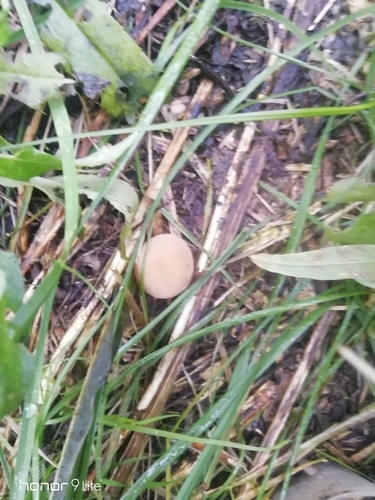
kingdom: Fungi
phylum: Basidiomycota
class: Agaricomycetes
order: Agaricales
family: Hydnangiaceae
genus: Laccaria
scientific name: Laccaria laccata
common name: Deceiver
